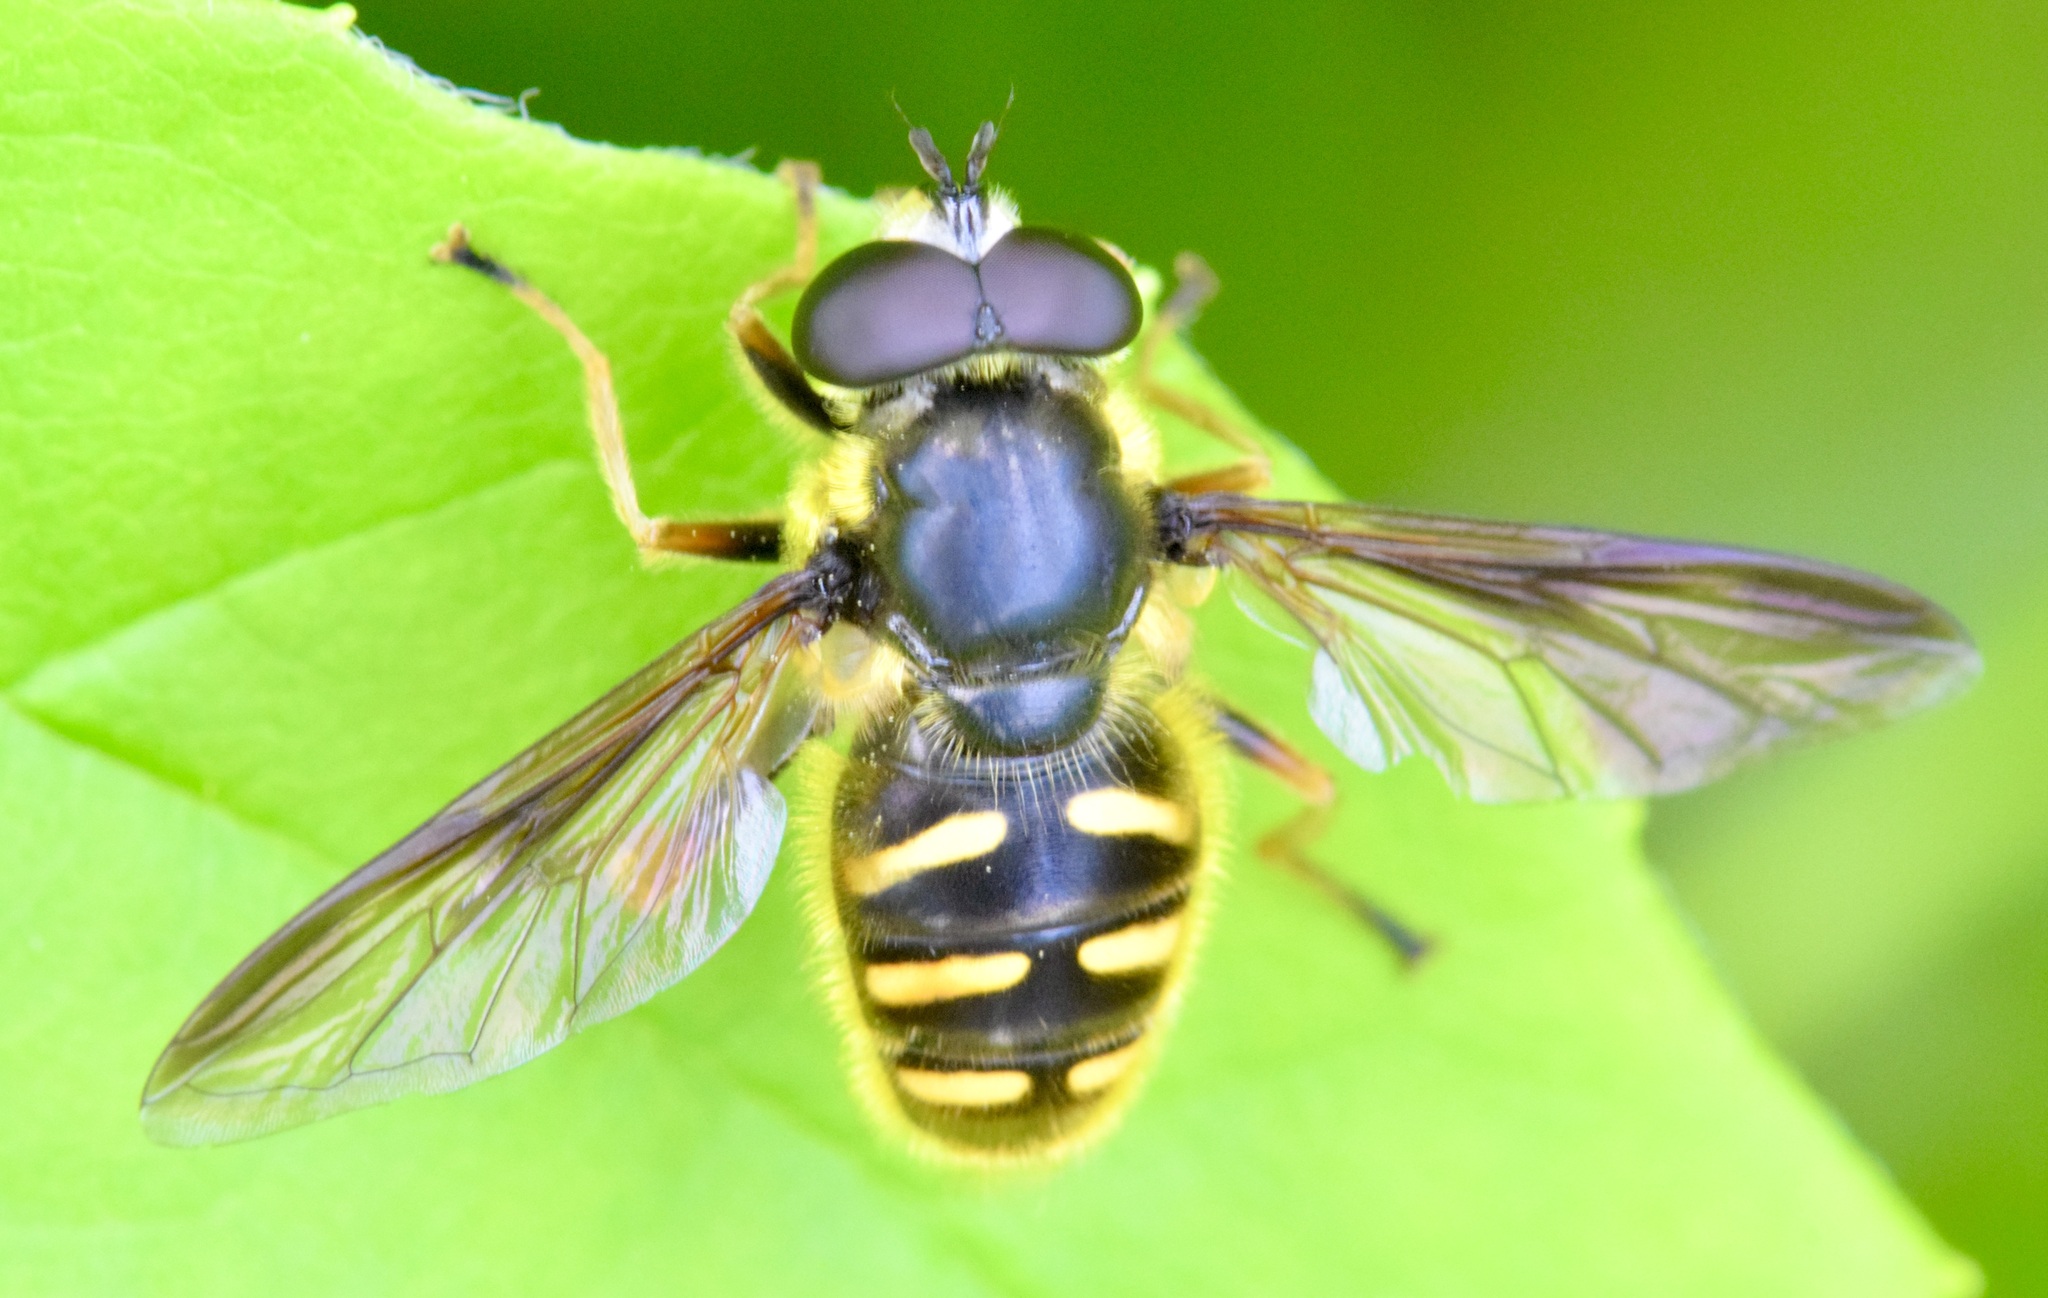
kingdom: Animalia
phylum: Arthropoda
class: Insecta
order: Diptera
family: Syrphidae
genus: Sericomyia
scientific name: Sericomyia chrysotoxoides
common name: Oblique-banded pond fly
